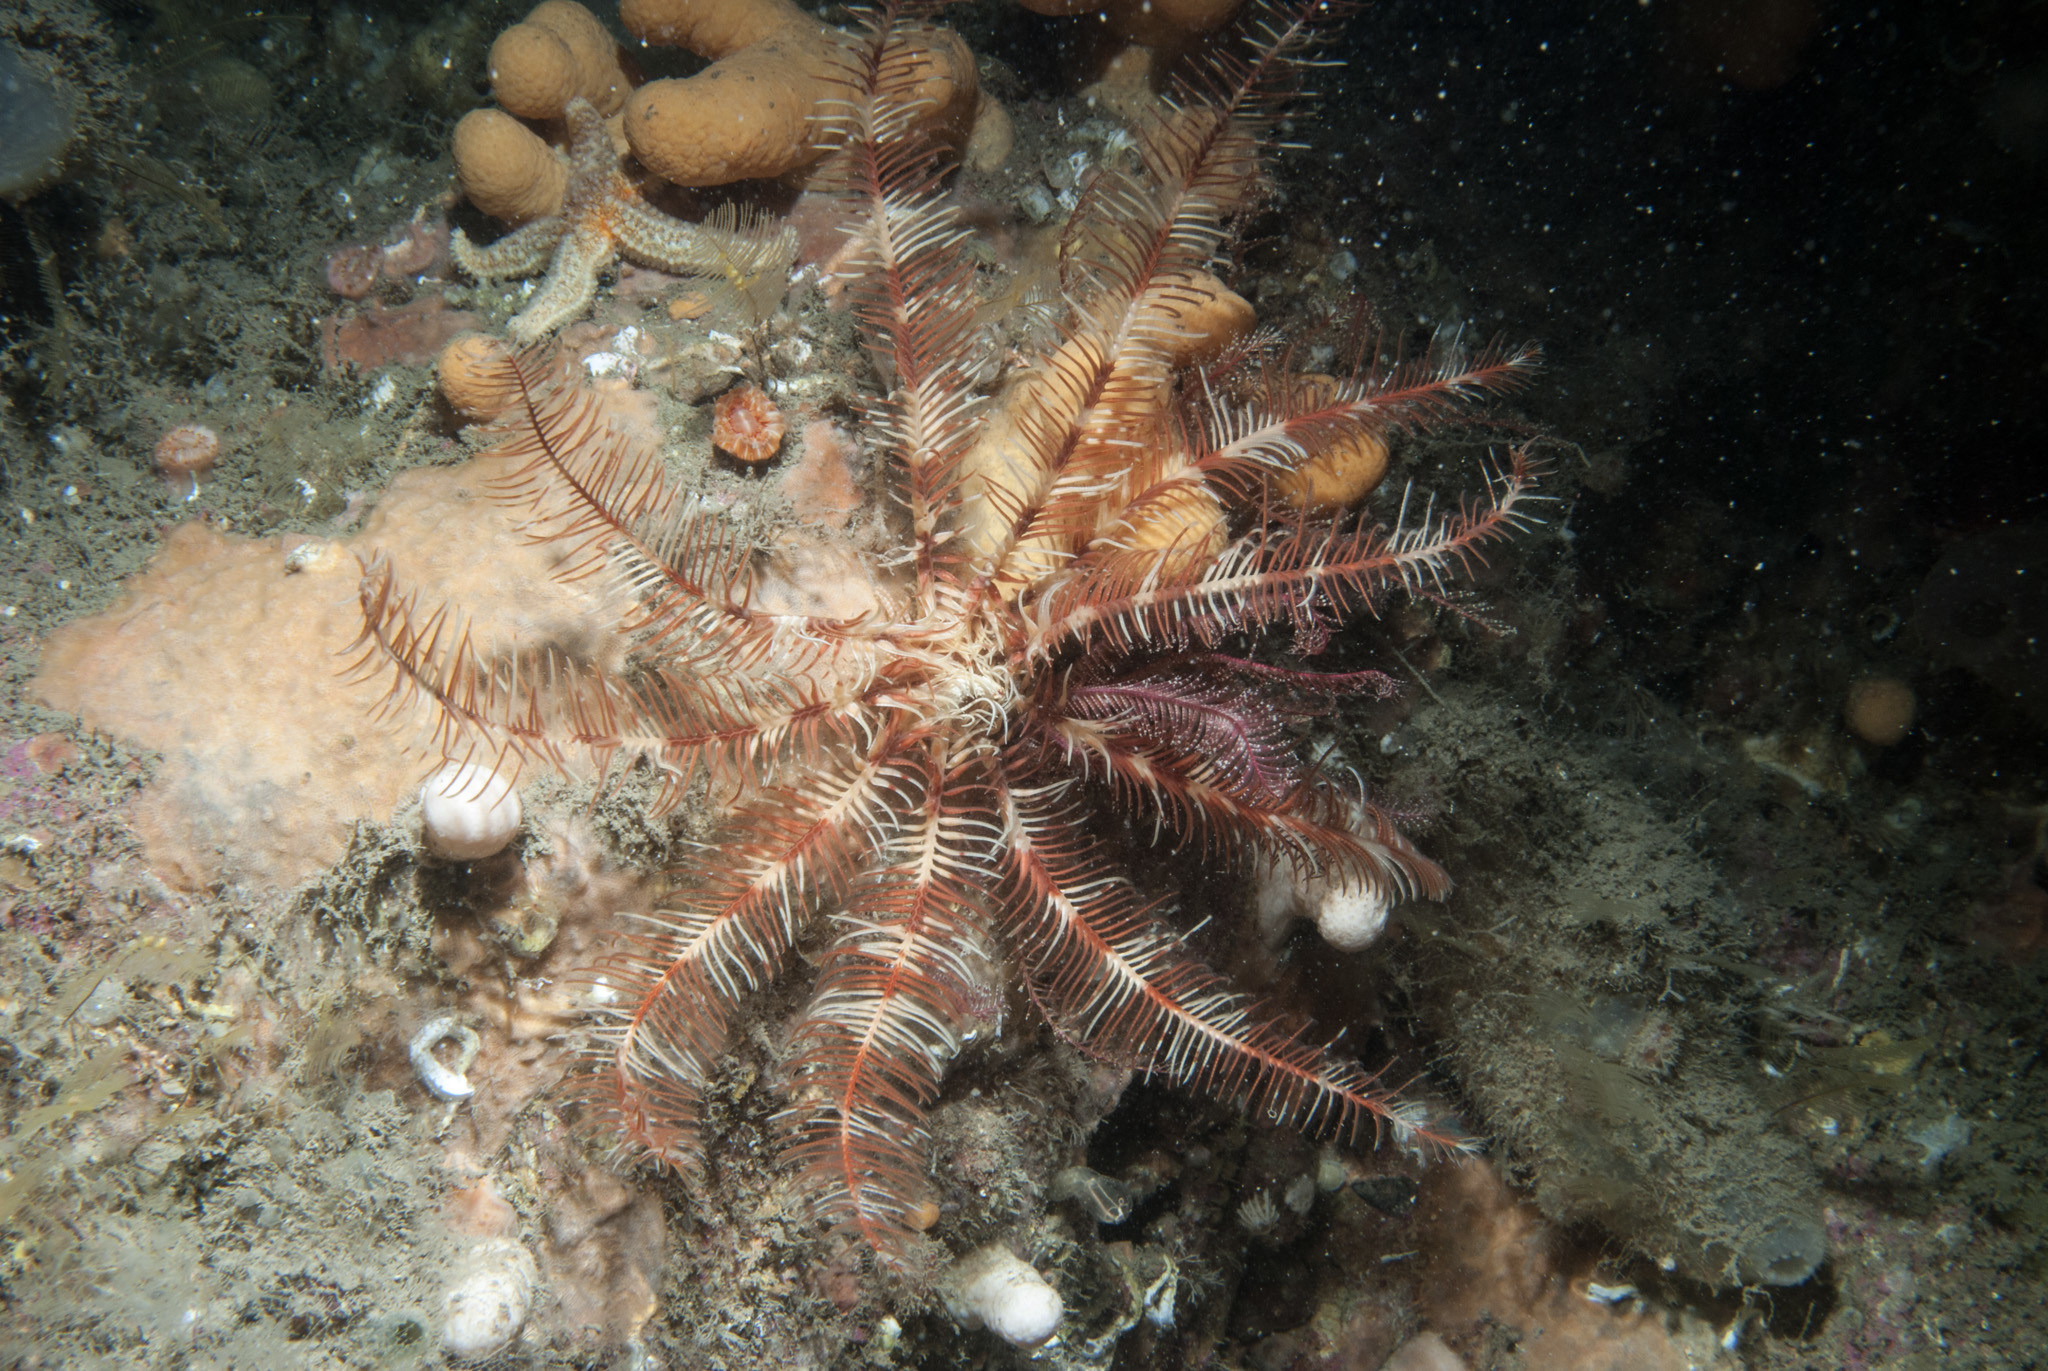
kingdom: Animalia
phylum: Echinodermata
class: Crinoidea
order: Comatulida
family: Antedonidae
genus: Antedon
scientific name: Antedon petasus
